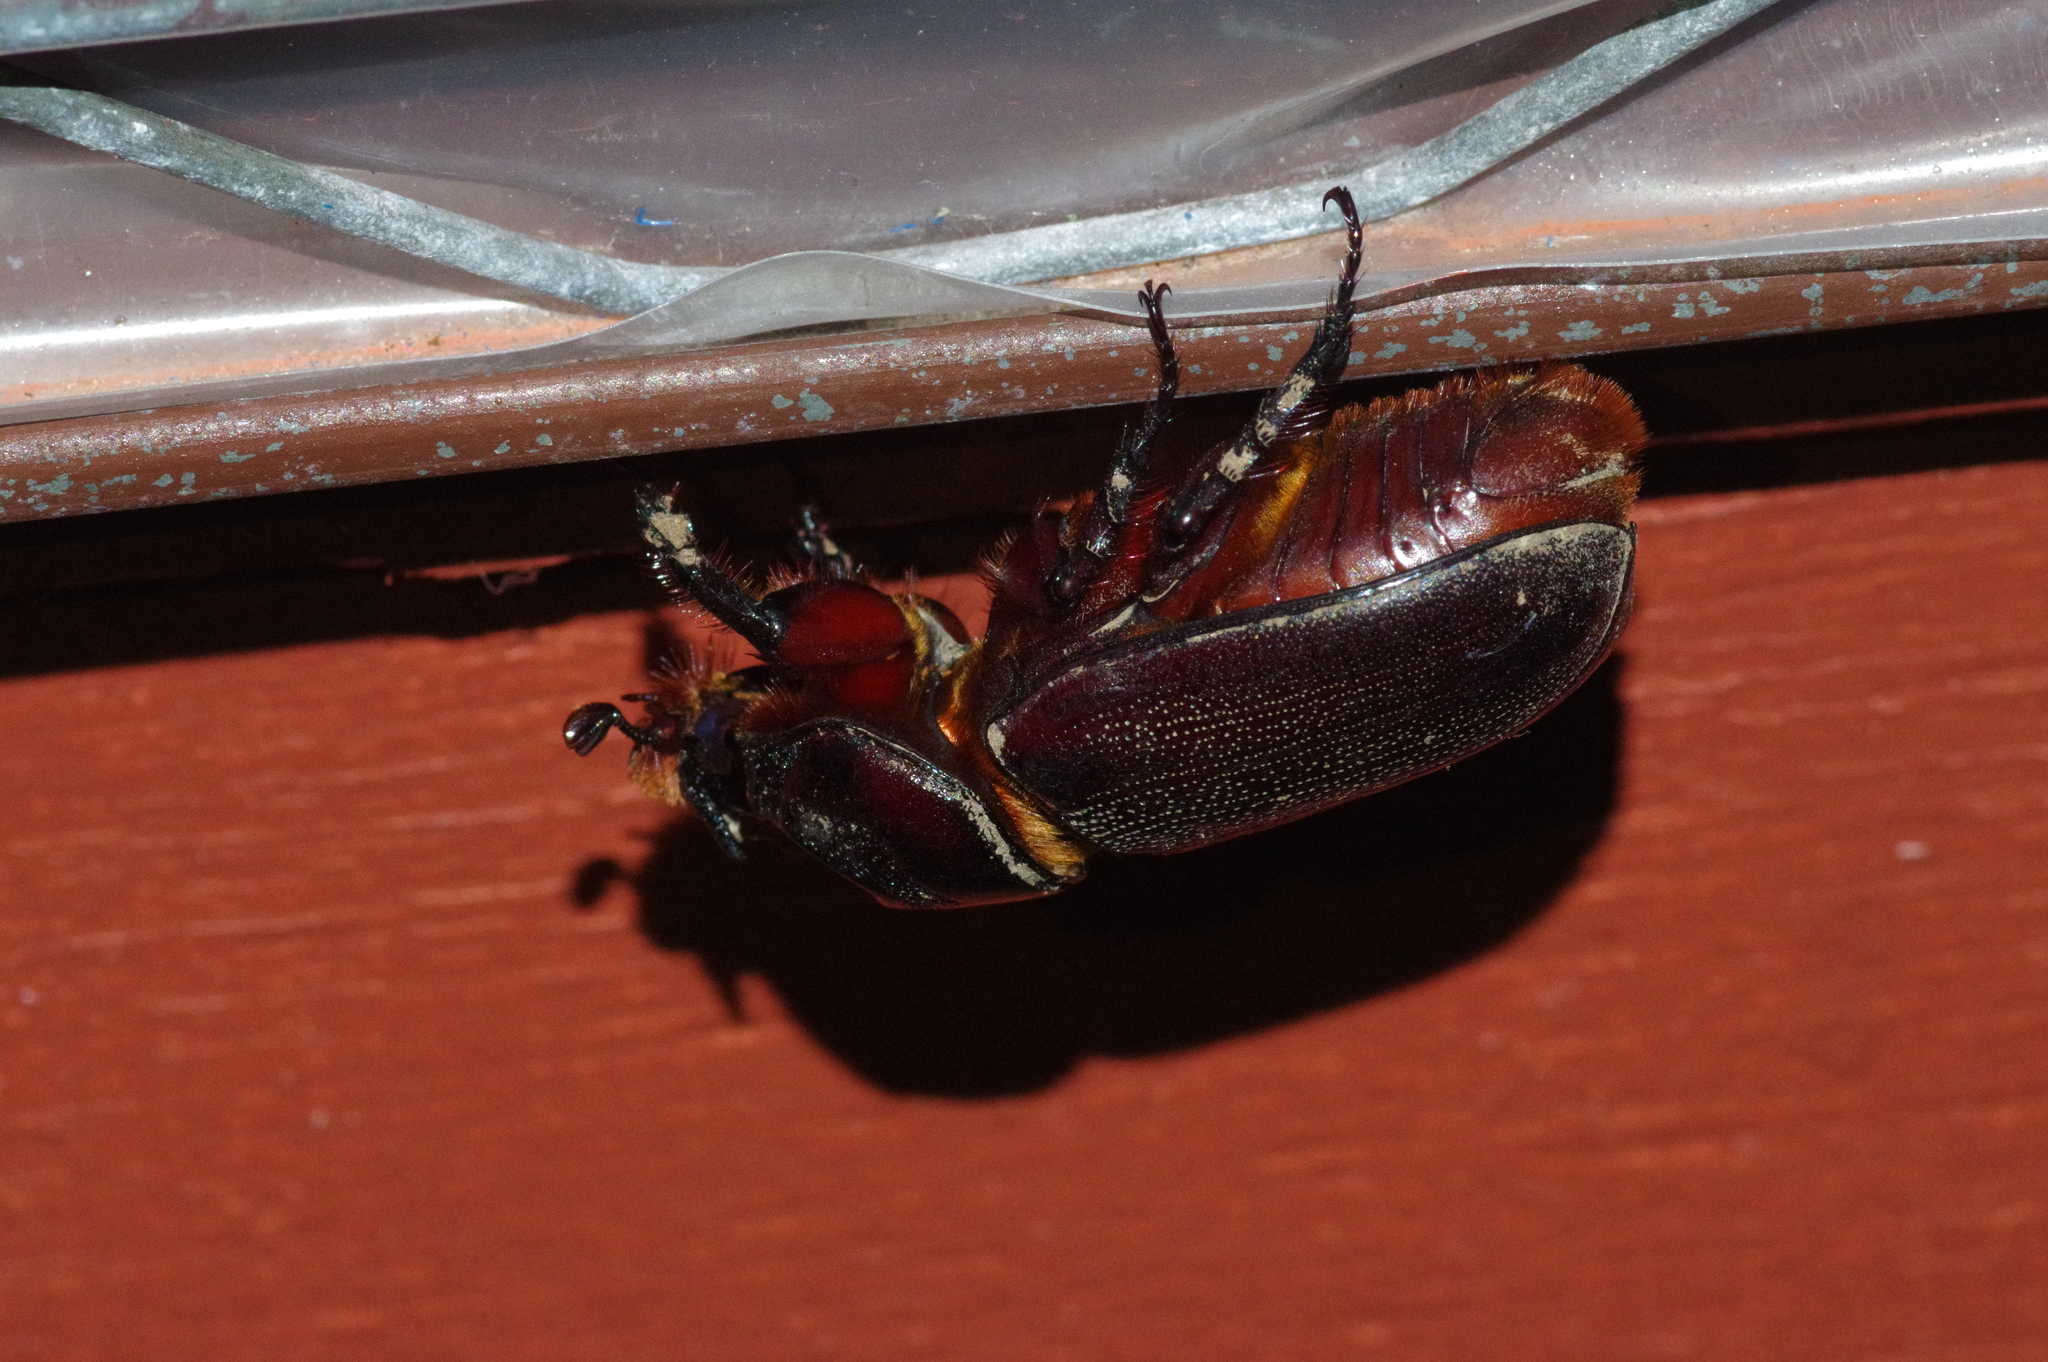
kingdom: Animalia
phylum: Arthropoda
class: Insecta
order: Coleoptera
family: Scarabaeidae
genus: Oryctes
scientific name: Oryctes rhinoceros
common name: Coconut rhinoceros beetle
